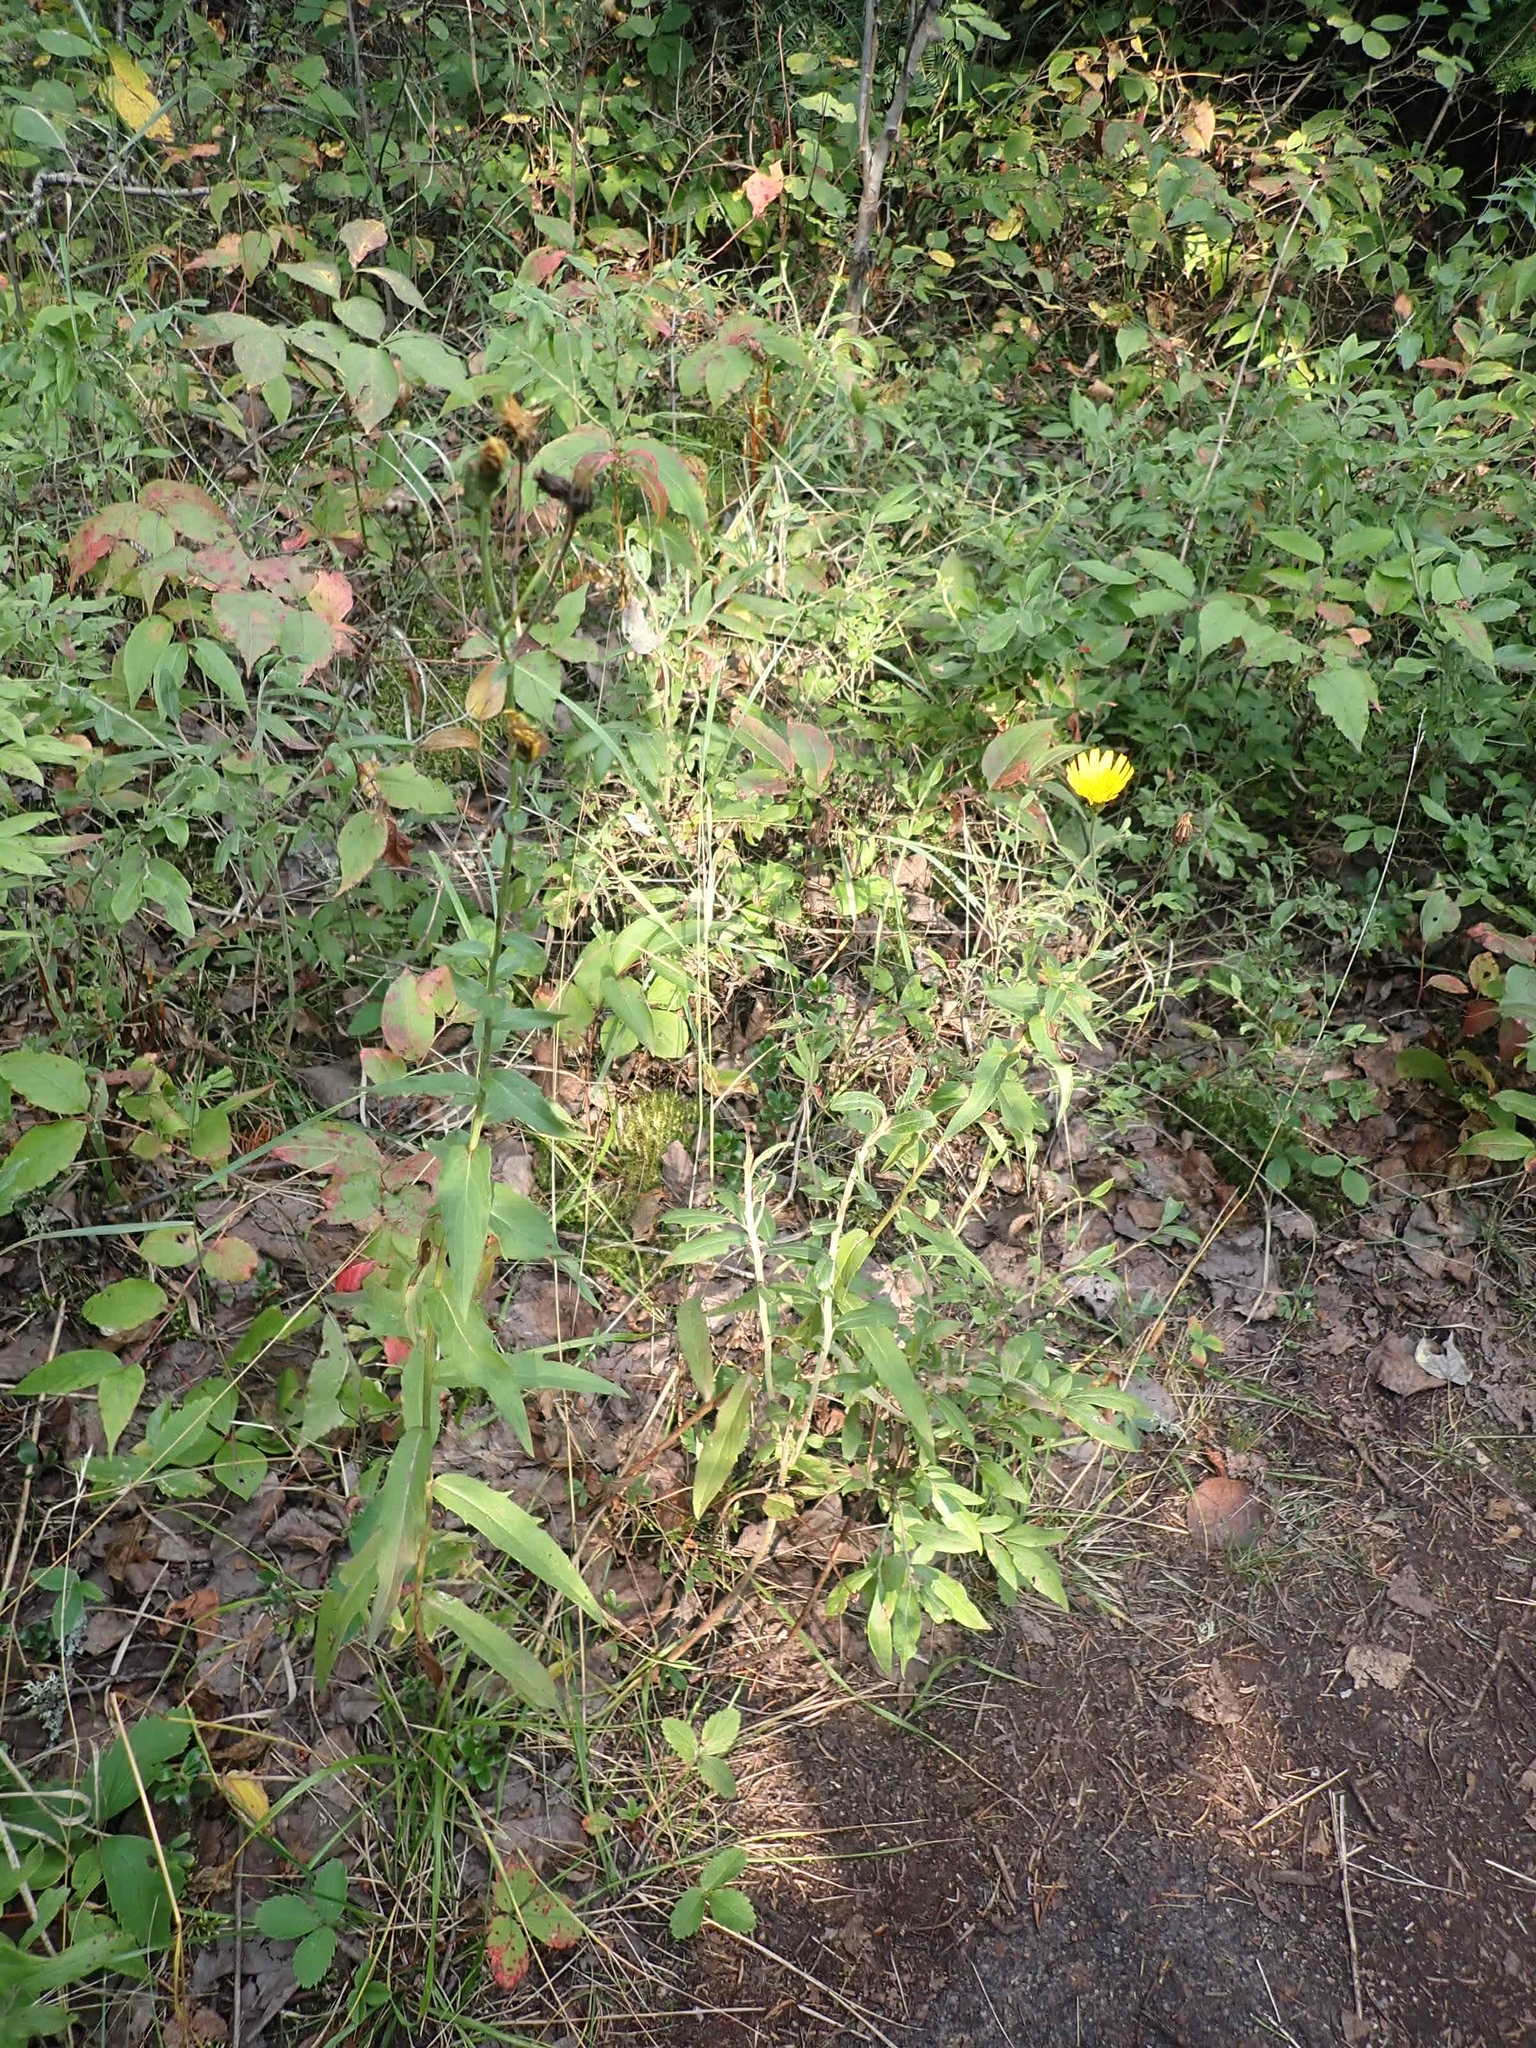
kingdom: Plantae
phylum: Tracheophyta
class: Magnoliopsida
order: Asterales
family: Asteraceae
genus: Hieracium
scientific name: Hieracium umbellatum
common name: Northern hawkweed
